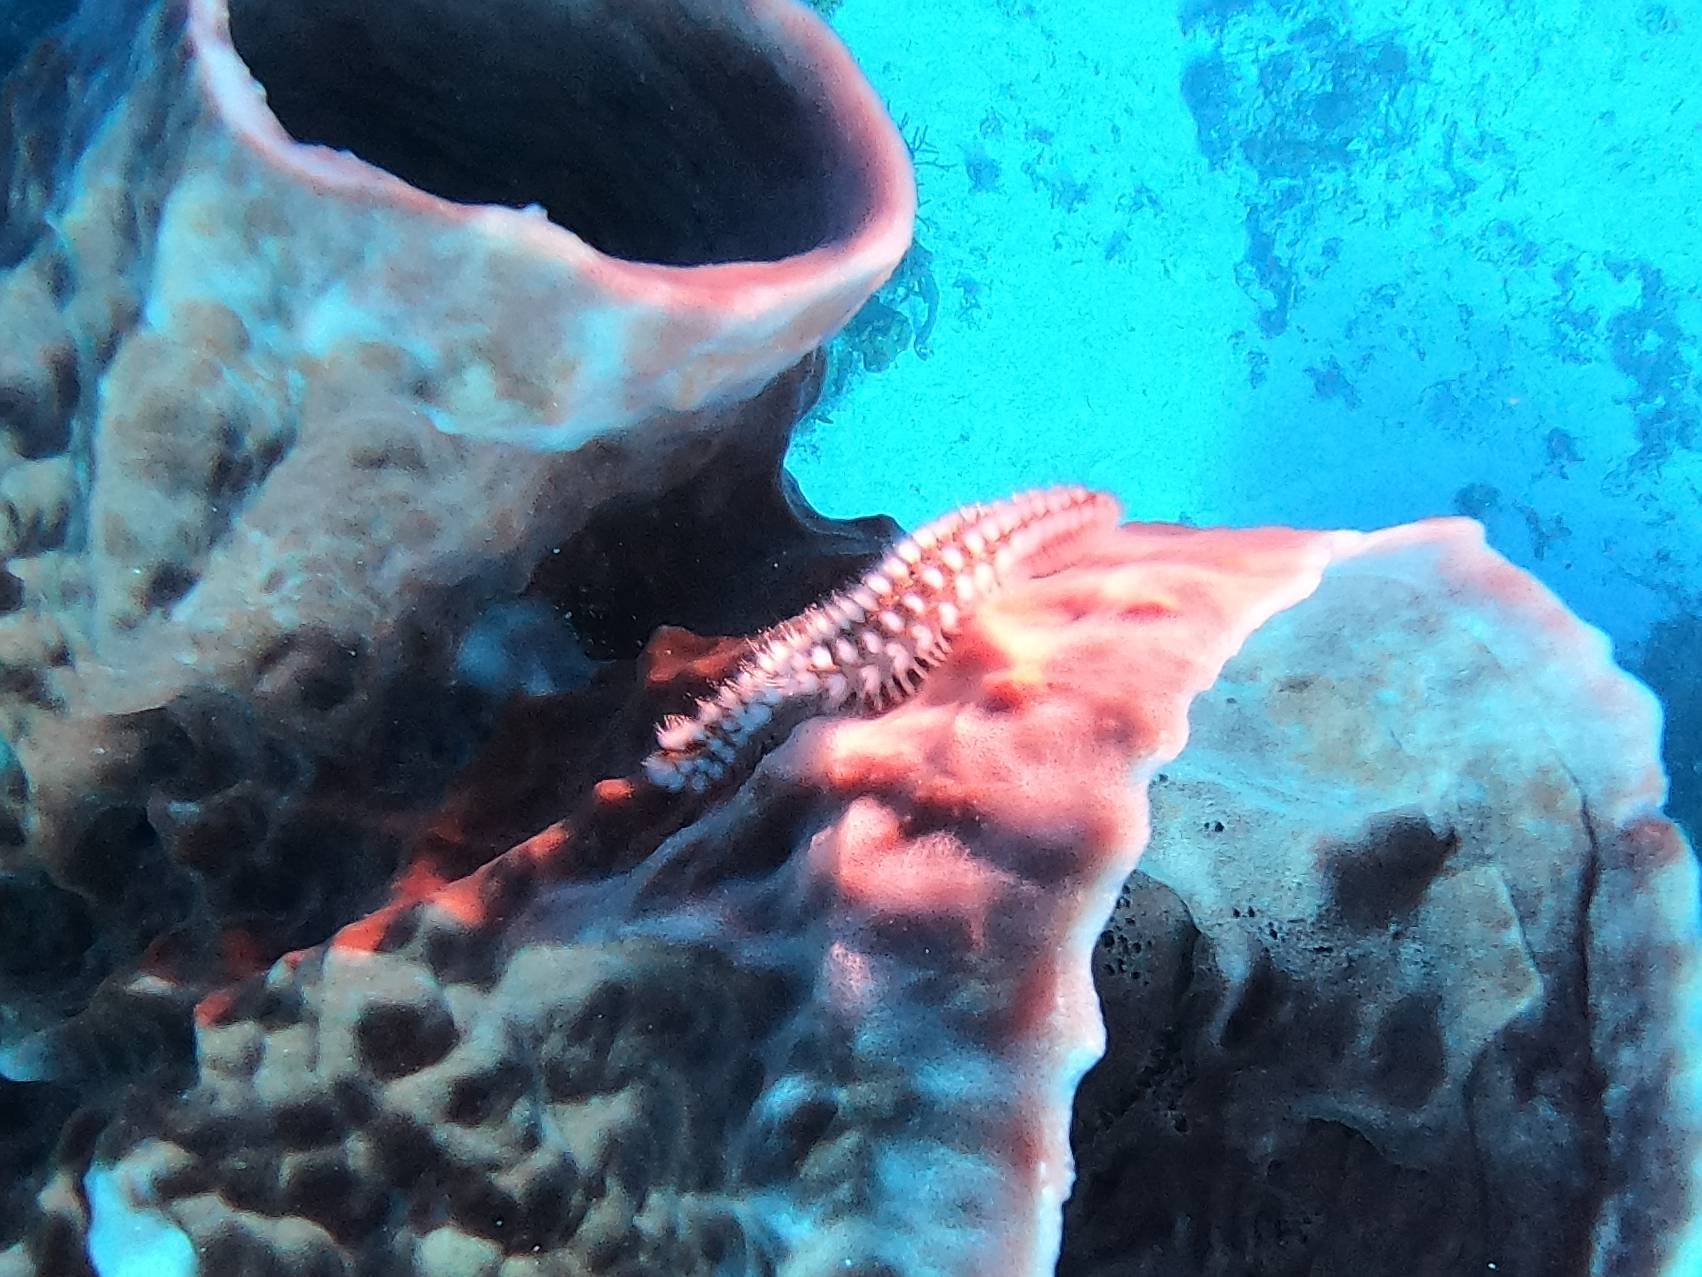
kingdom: Animalia
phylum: Annelida
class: Polychaeta
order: Amphinomida
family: Amphinomidae
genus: Hermodice
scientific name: Hermodice carunculata
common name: Bearded fireworm
